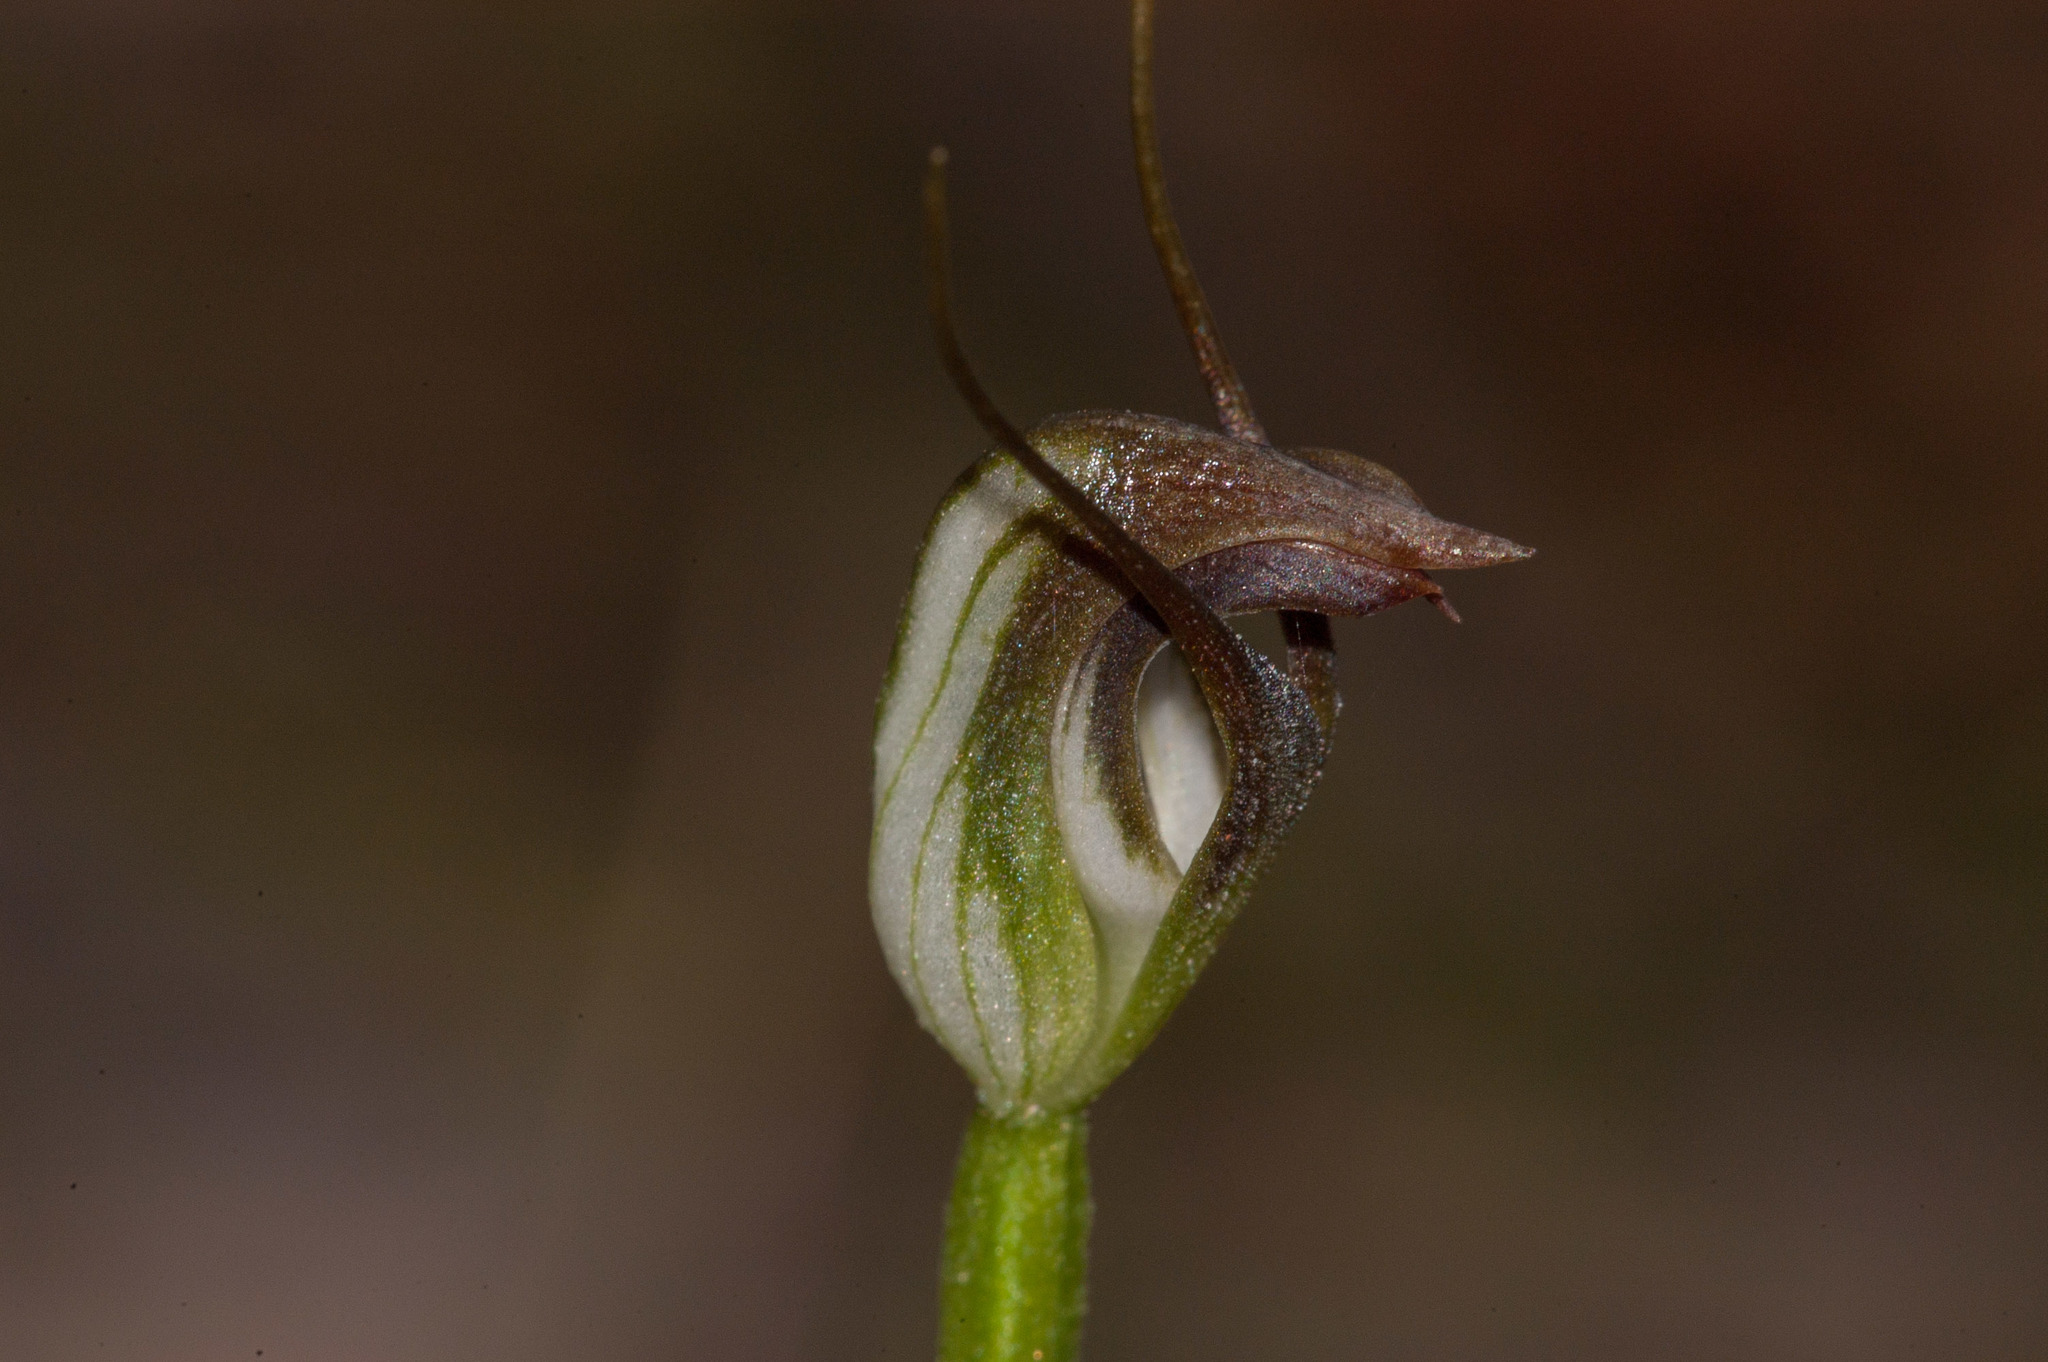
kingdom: Plantae
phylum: Tracheophyta
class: Liliopsida
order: Asparagales
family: Orchidaceae
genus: Pterostylis
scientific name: Pterostylis pedunculata
